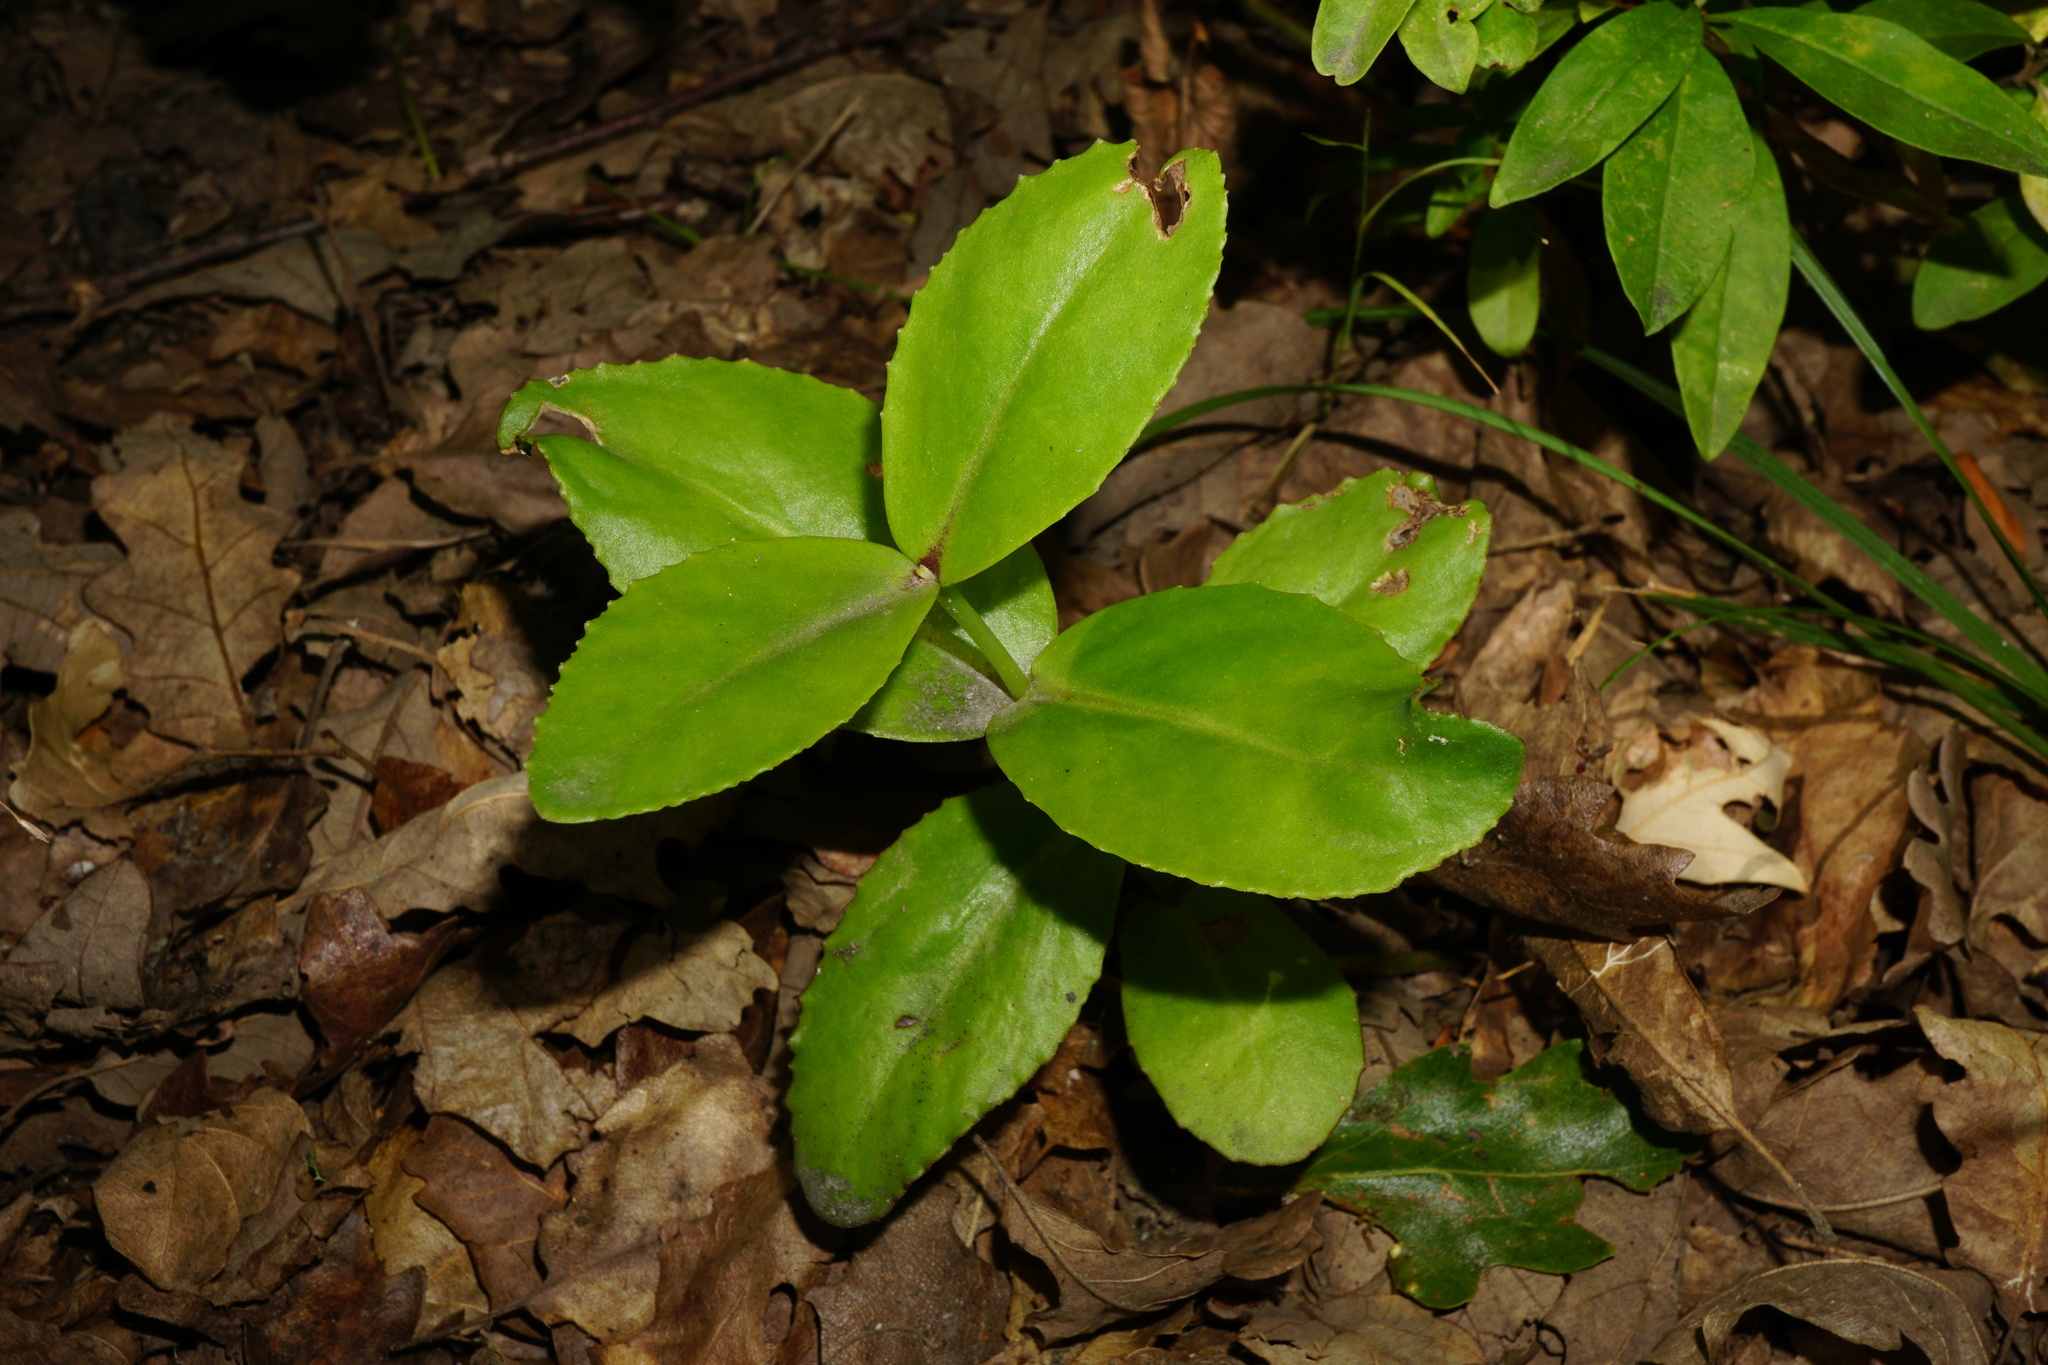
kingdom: Plantae
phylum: Tracheophyta
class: Magnoliopsida
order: Saxifragales
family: Crassulaceae
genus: Hylotelephium
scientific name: Hylotelephium maximum
